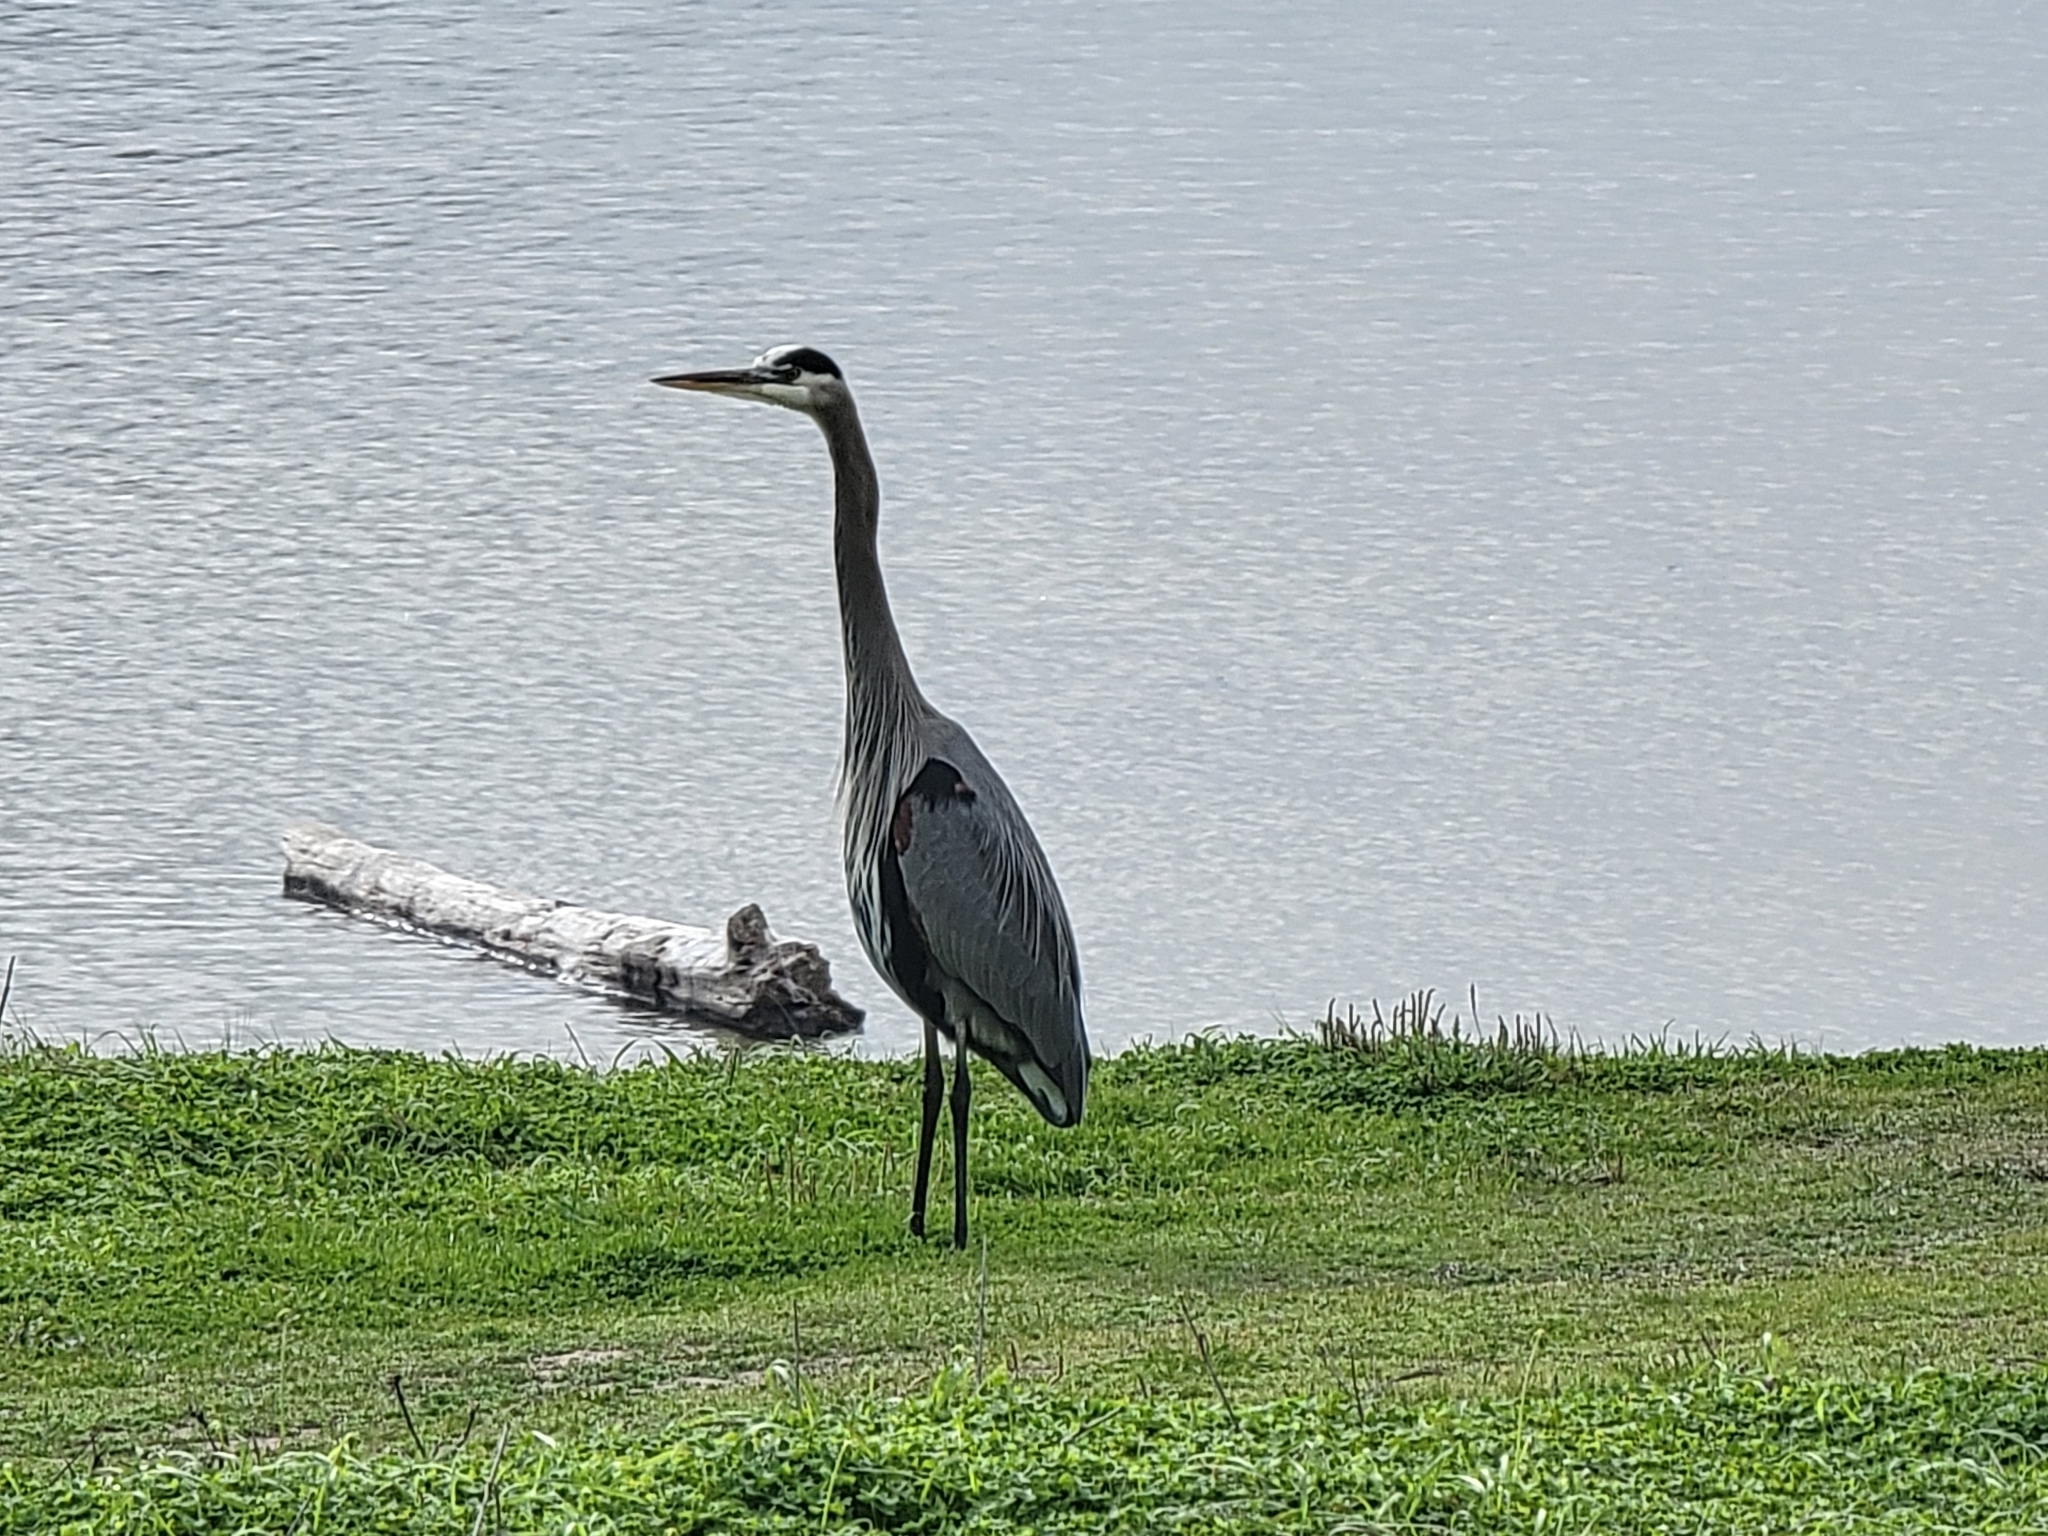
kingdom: Animalia
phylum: Chordata
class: Aves
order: Pelecaniformes
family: Ardeidae
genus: Ardea
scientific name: Ardea herodias
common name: Great blue heron
